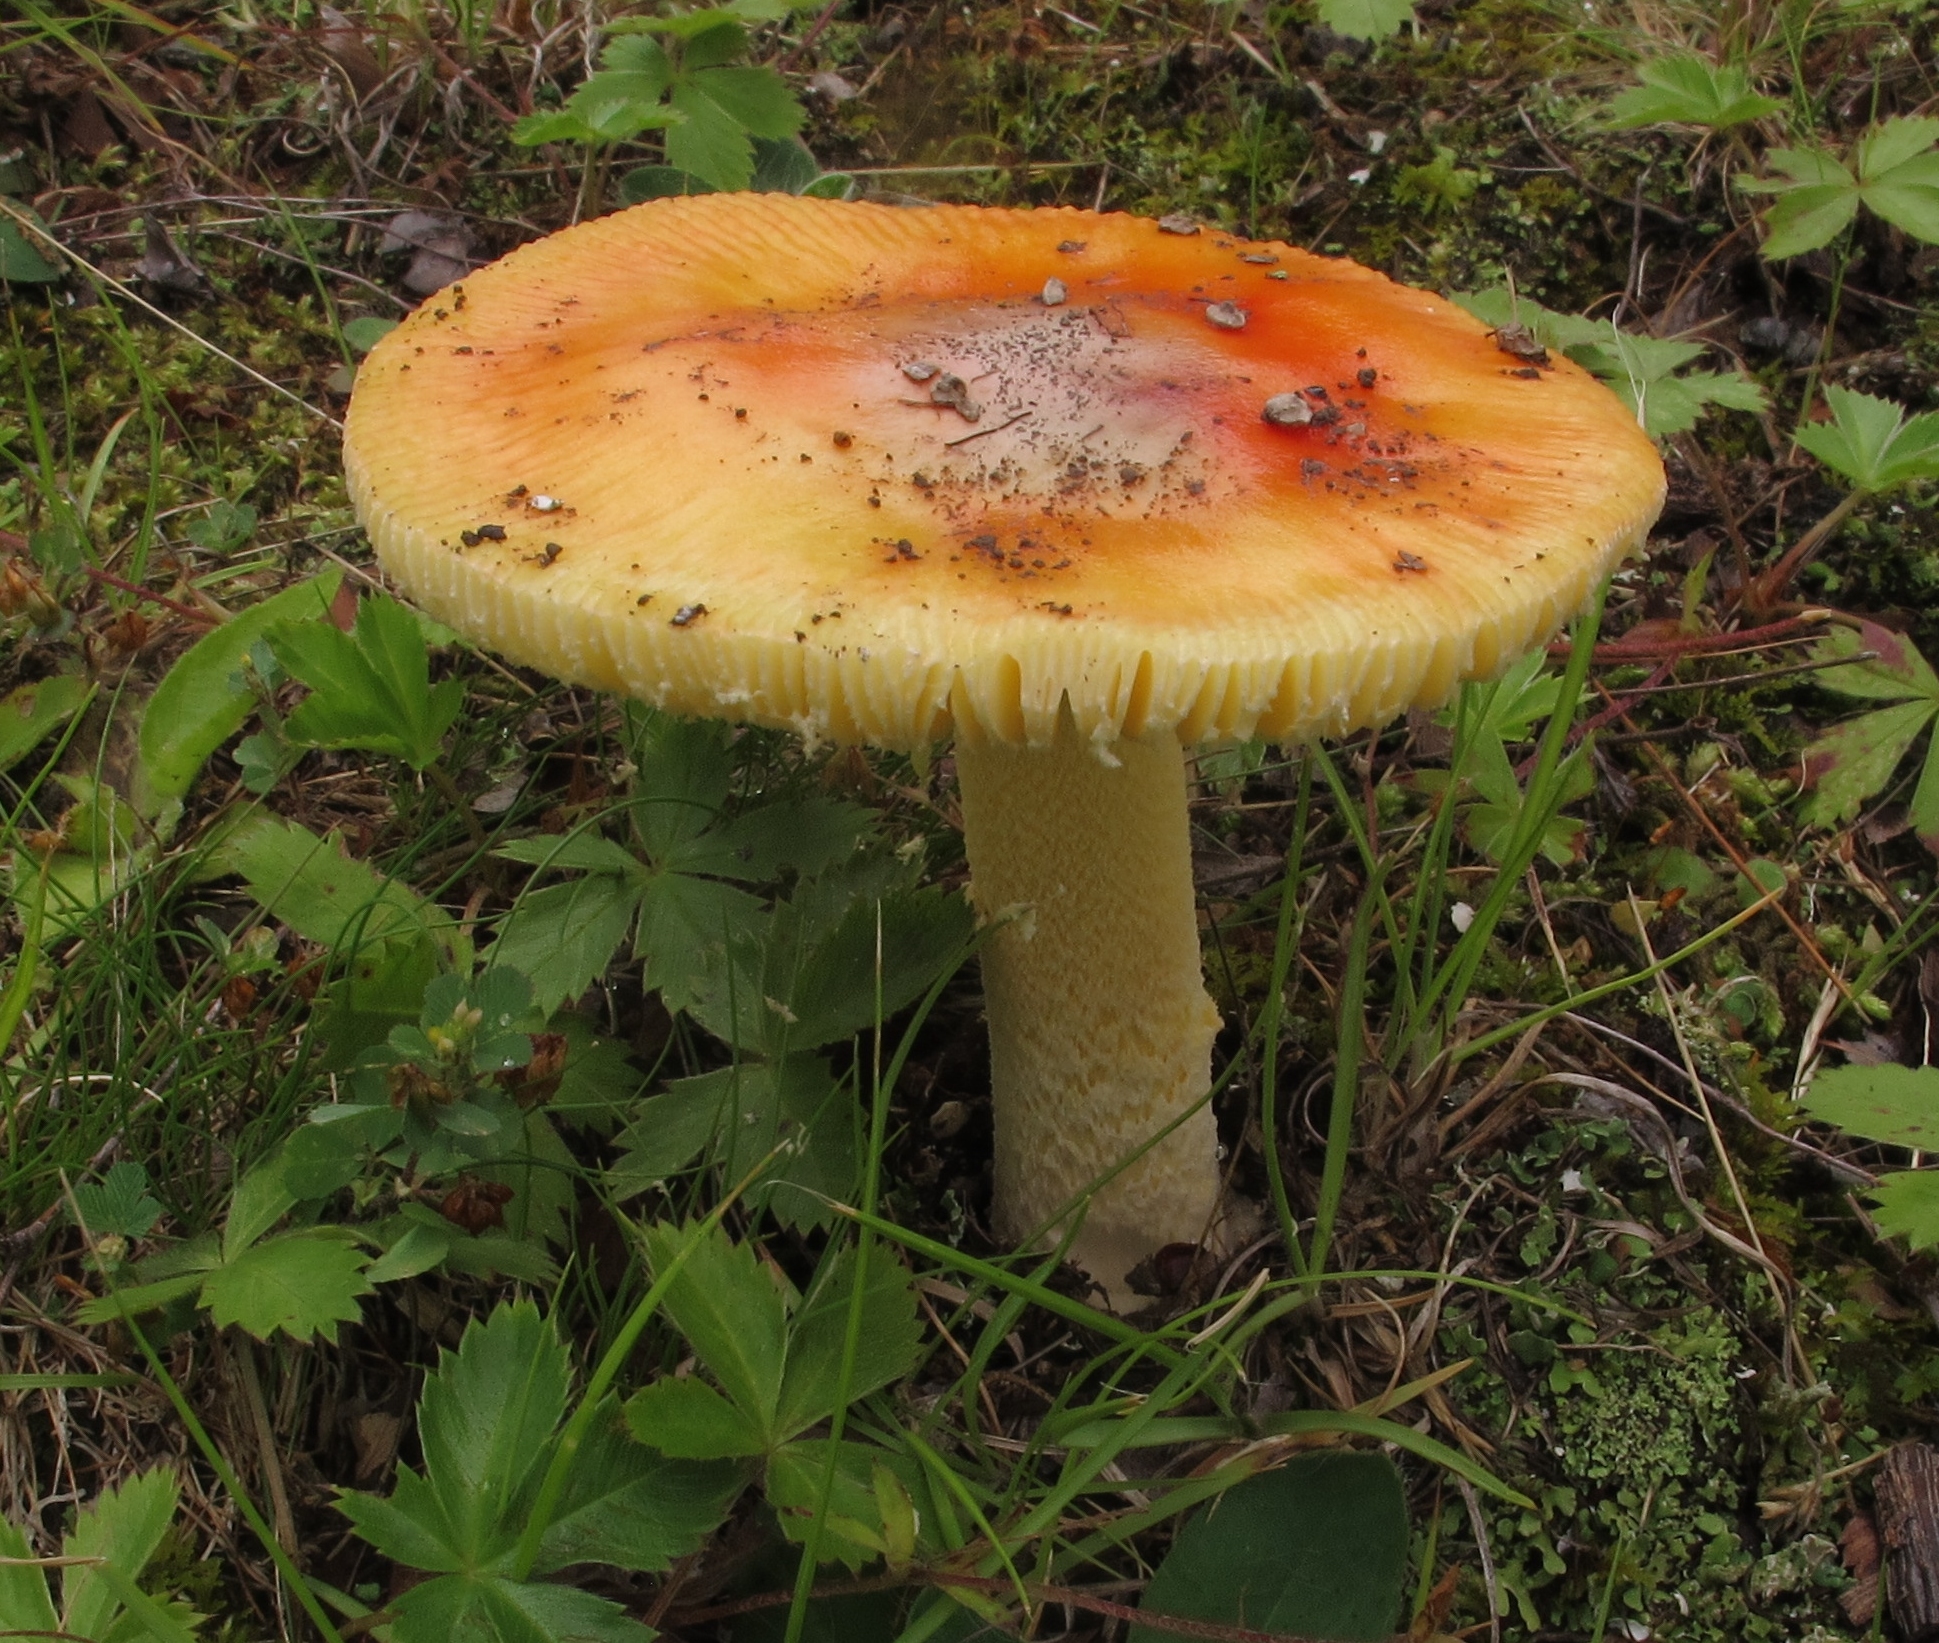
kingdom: Fungi
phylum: Basidiomycota
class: Agaricomycetes
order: Agaricales
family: Amanitaceae
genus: Amanita
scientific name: Amanita parcivolvata
